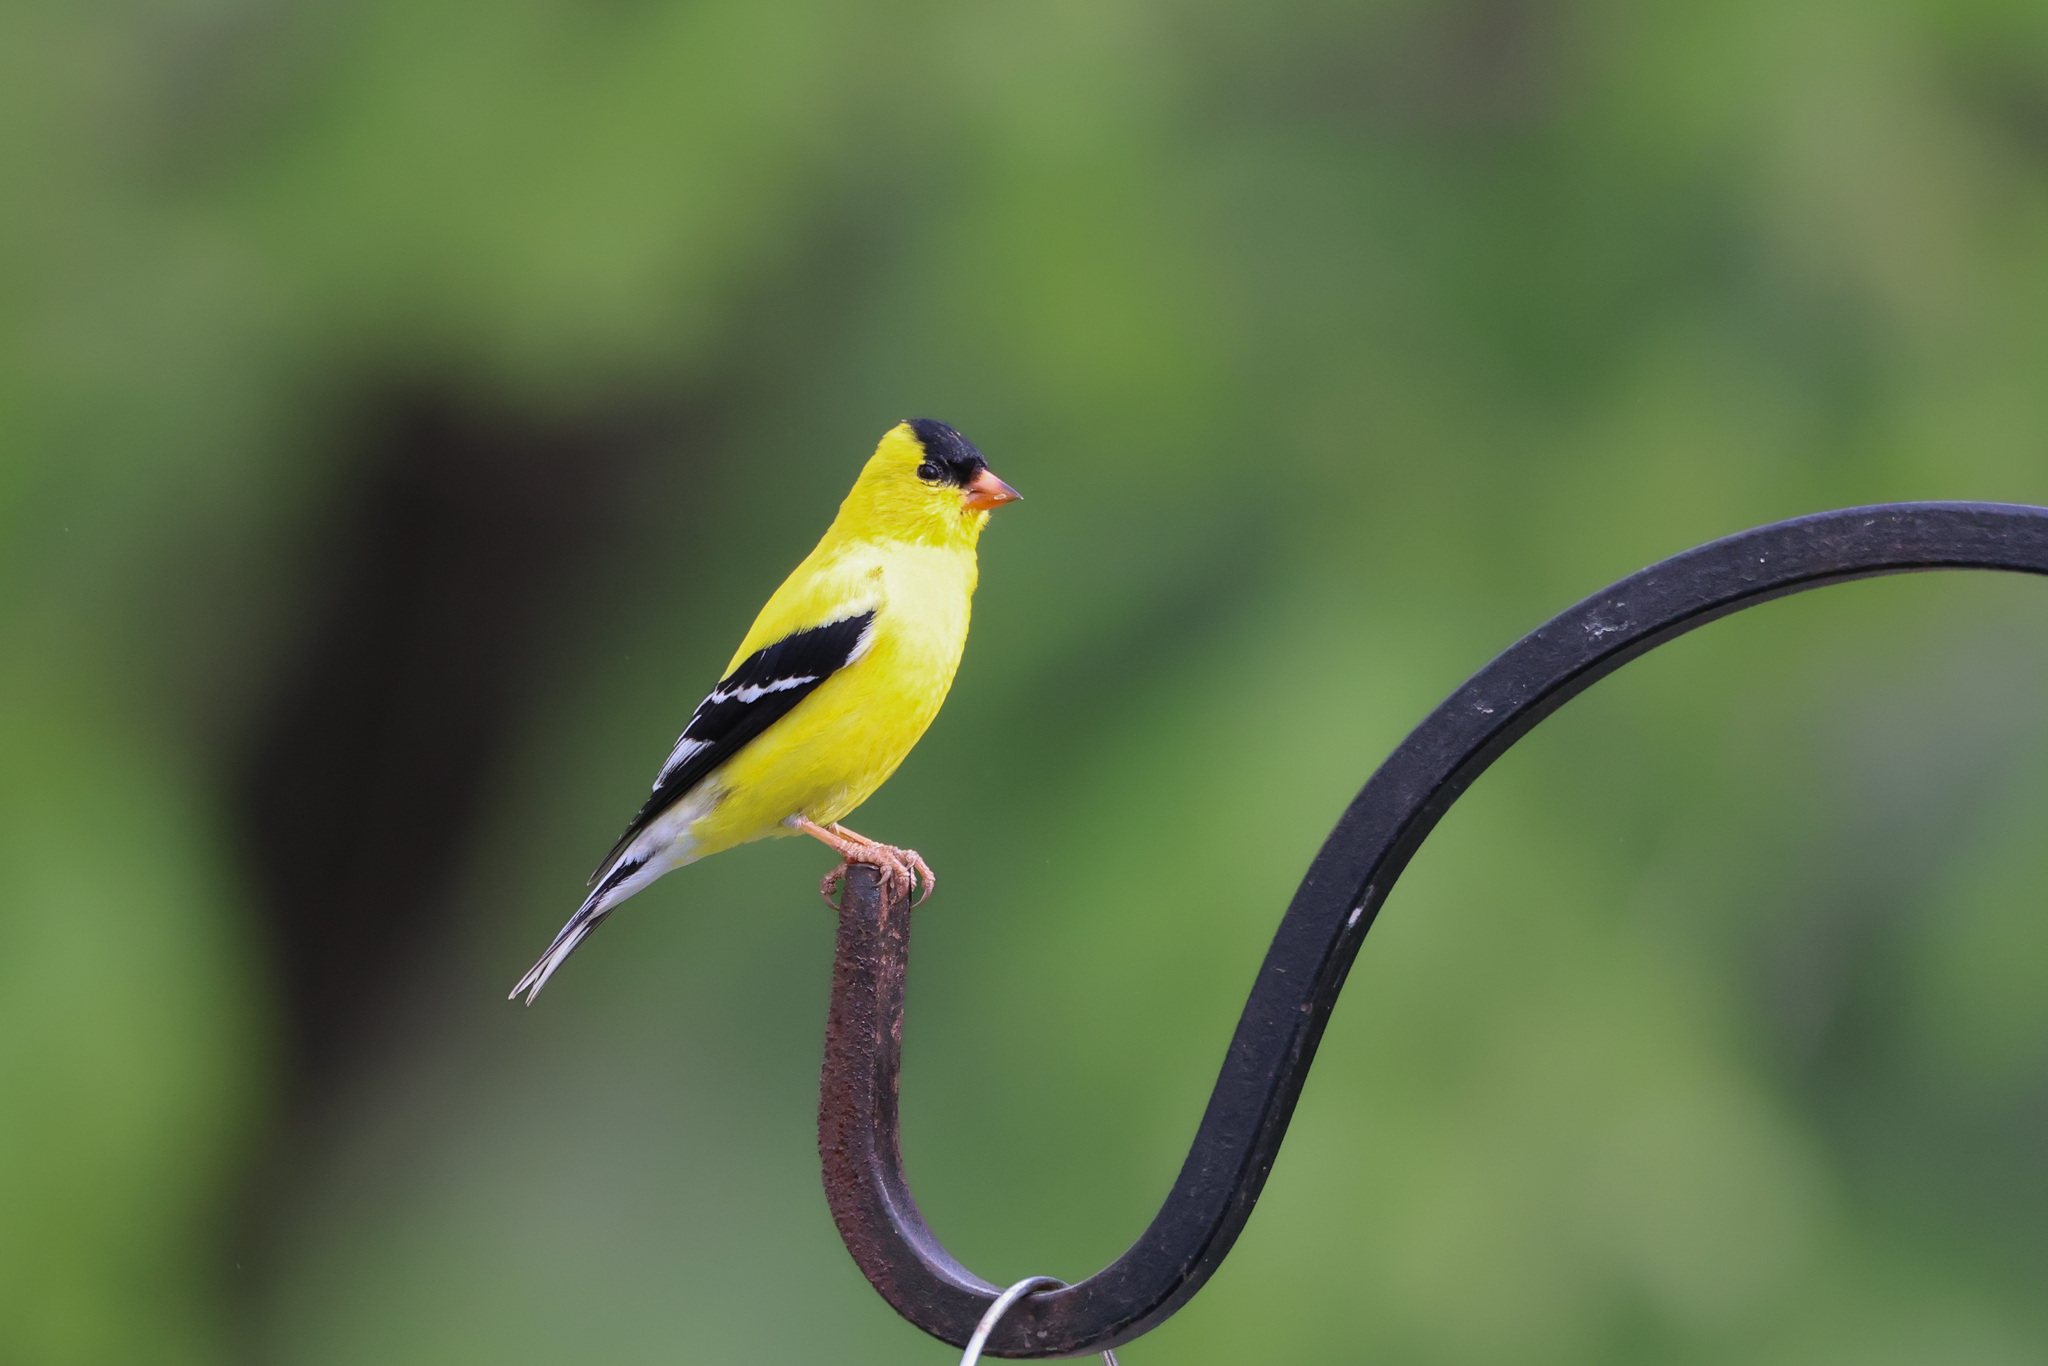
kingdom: Animalia
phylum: Chordata
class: Aves
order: Passeriformes
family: Fringillidae
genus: Spinus
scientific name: Spinus tristis
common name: American goldfinch
